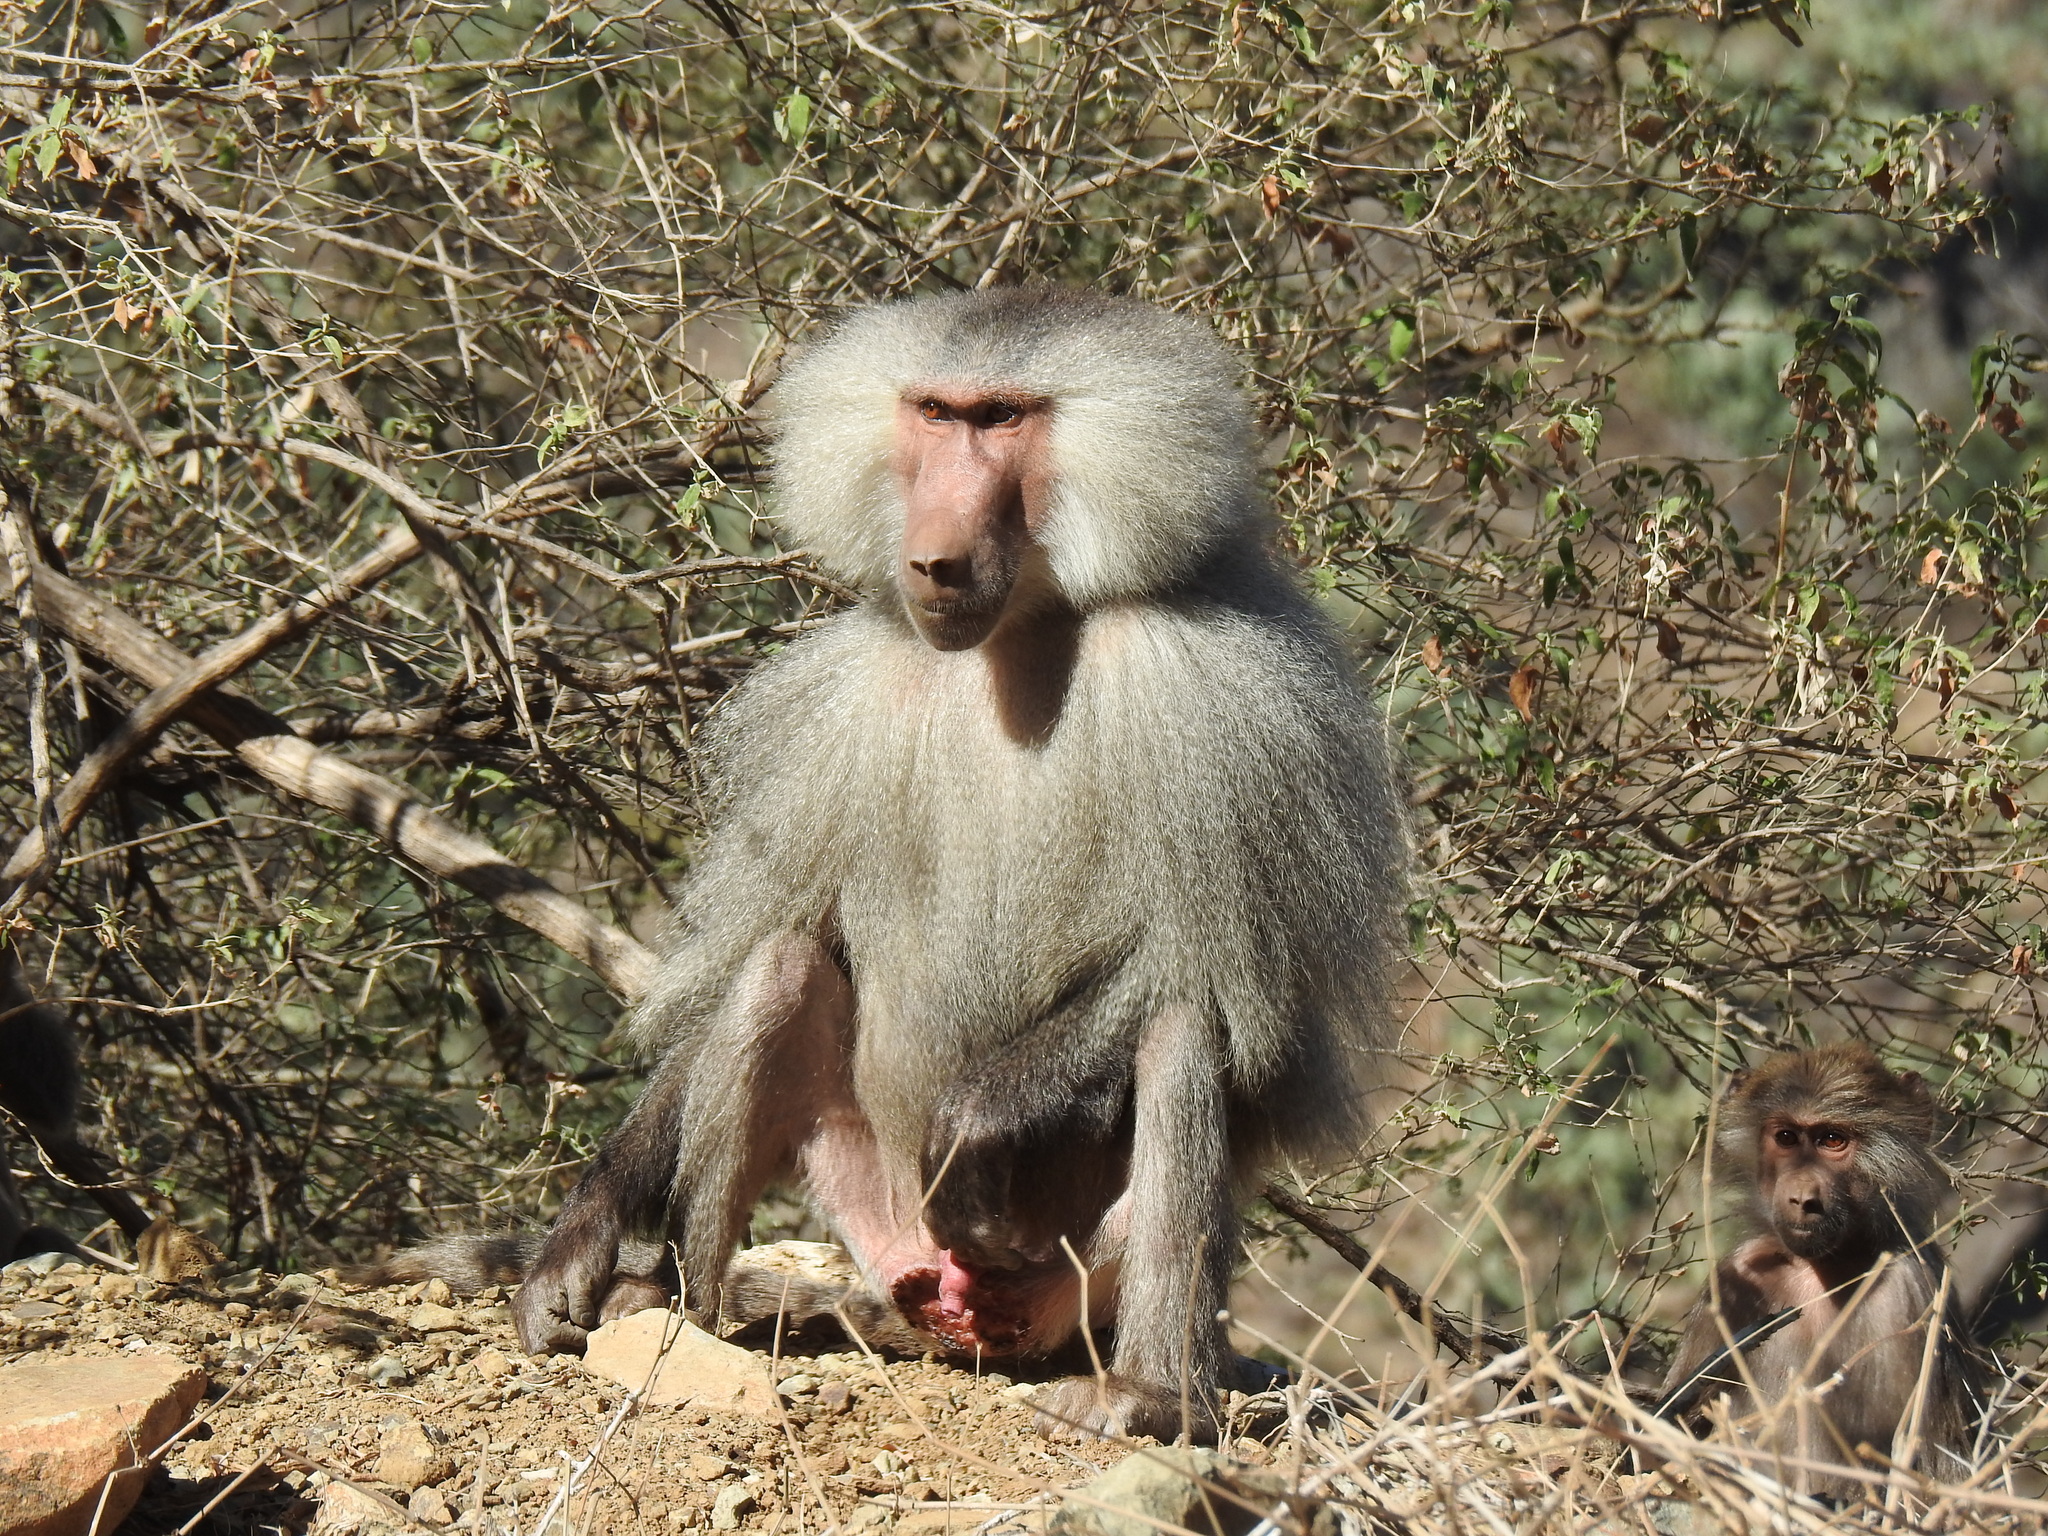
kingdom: Animalia
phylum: Chordata
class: Mammalia
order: Primates
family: Cercopithecidae
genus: Papio
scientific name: Papio hamadryas
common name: Hamadryas baboon
